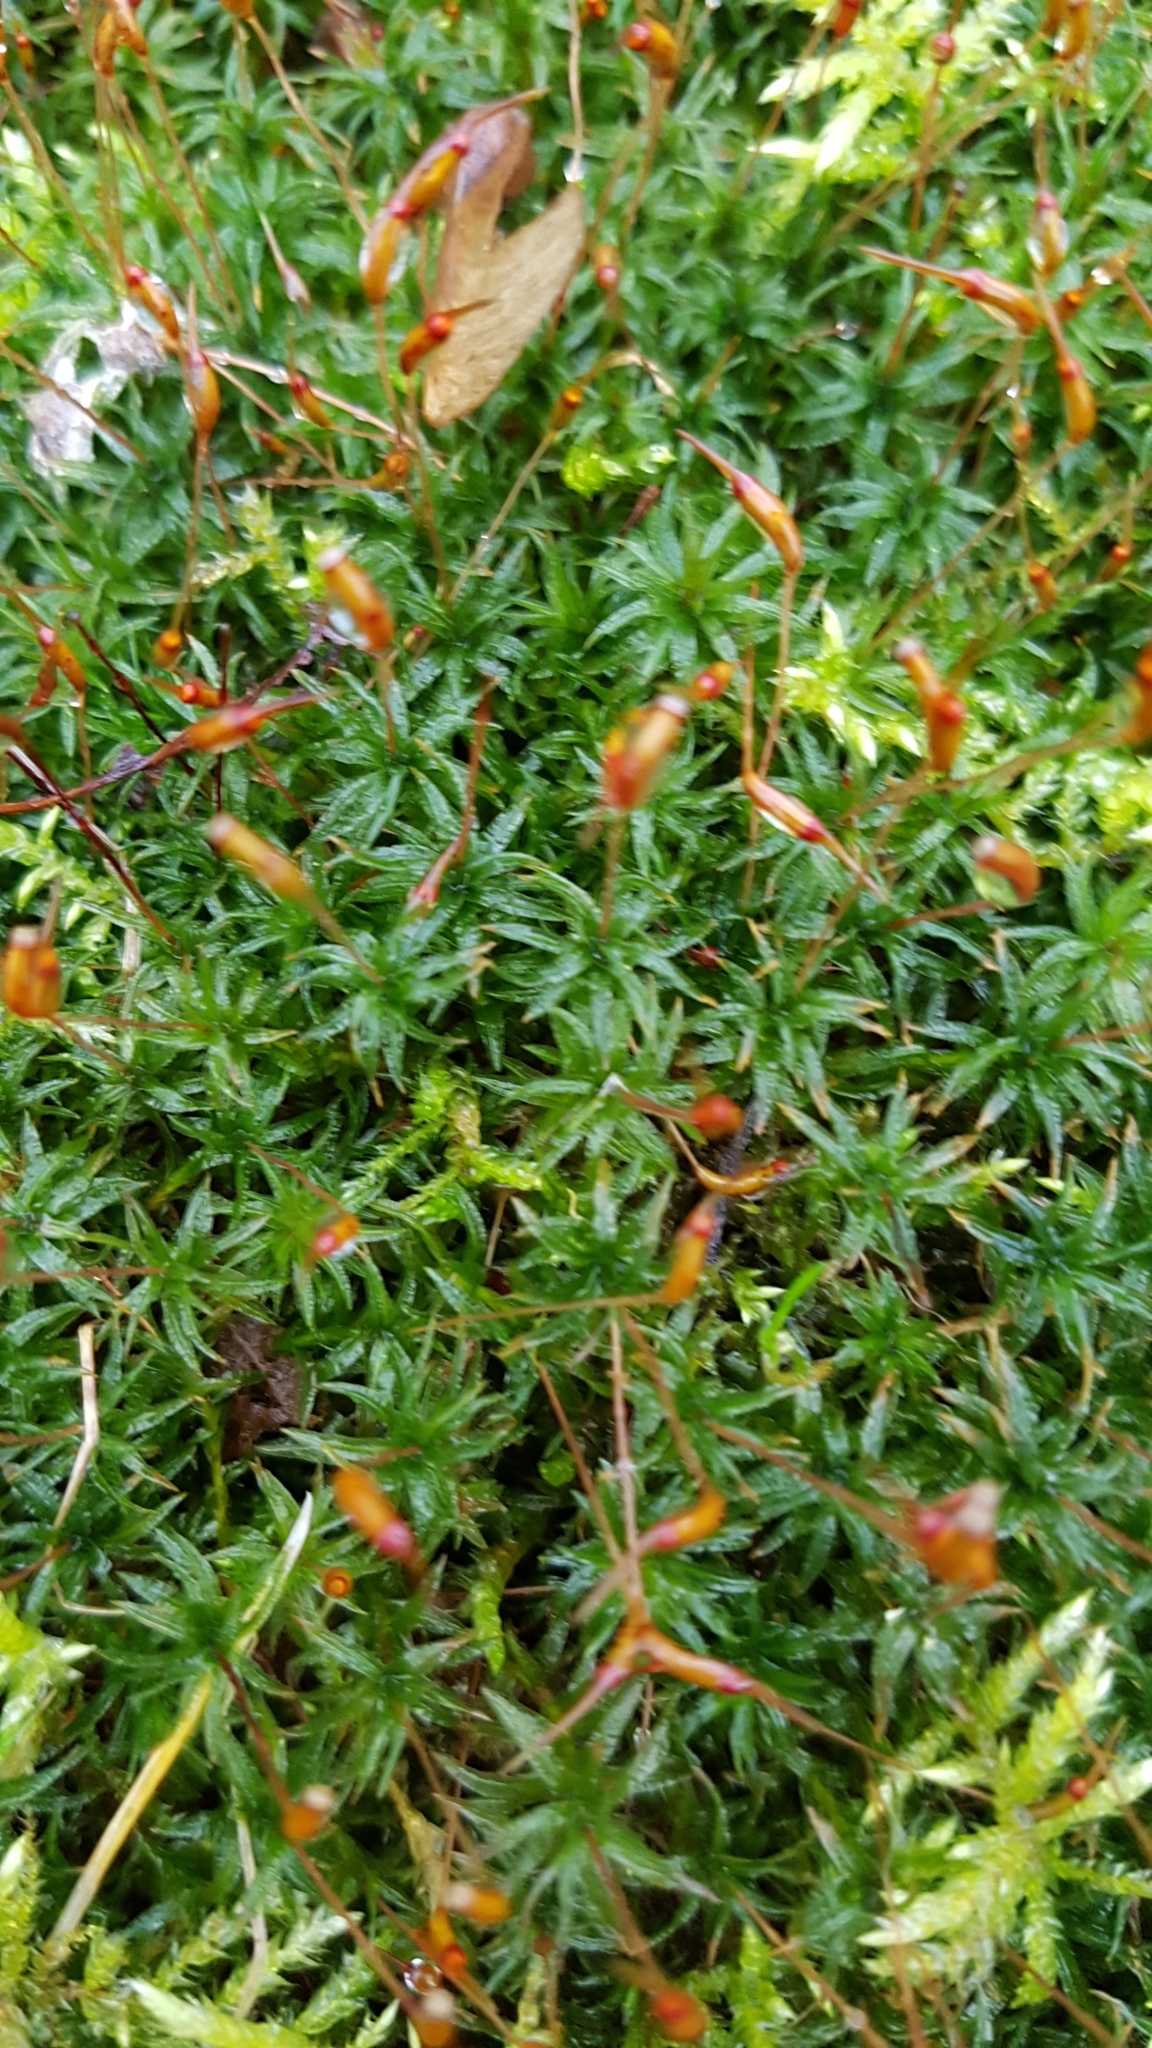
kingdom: Plantae
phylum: Bryophyta
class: Polytrichopsida
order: Polytrichales
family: Polytrichaceae
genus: Atrichum
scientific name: Atrichum undulatum
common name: Common smoothcap
